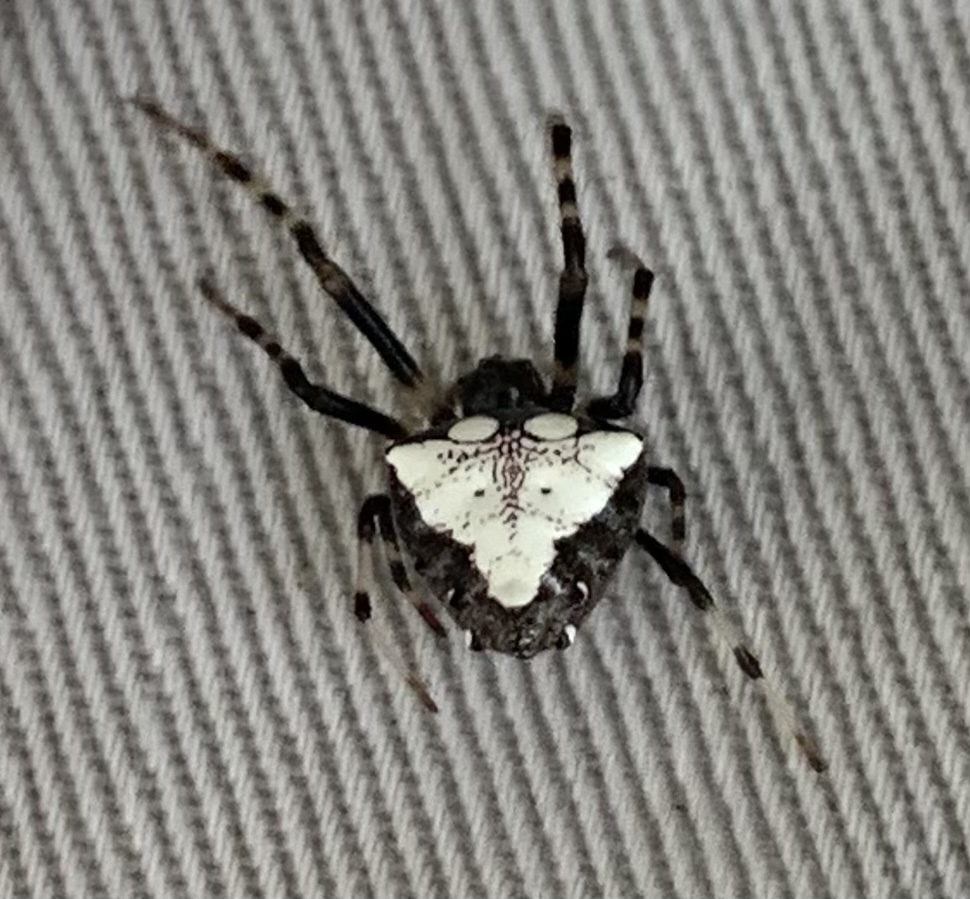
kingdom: Animalia
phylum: Arthropoda
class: Arachnida
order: Araneae
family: Araneidae
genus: Verrucosa
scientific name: Verrucosa arenata
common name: Orb weavers
